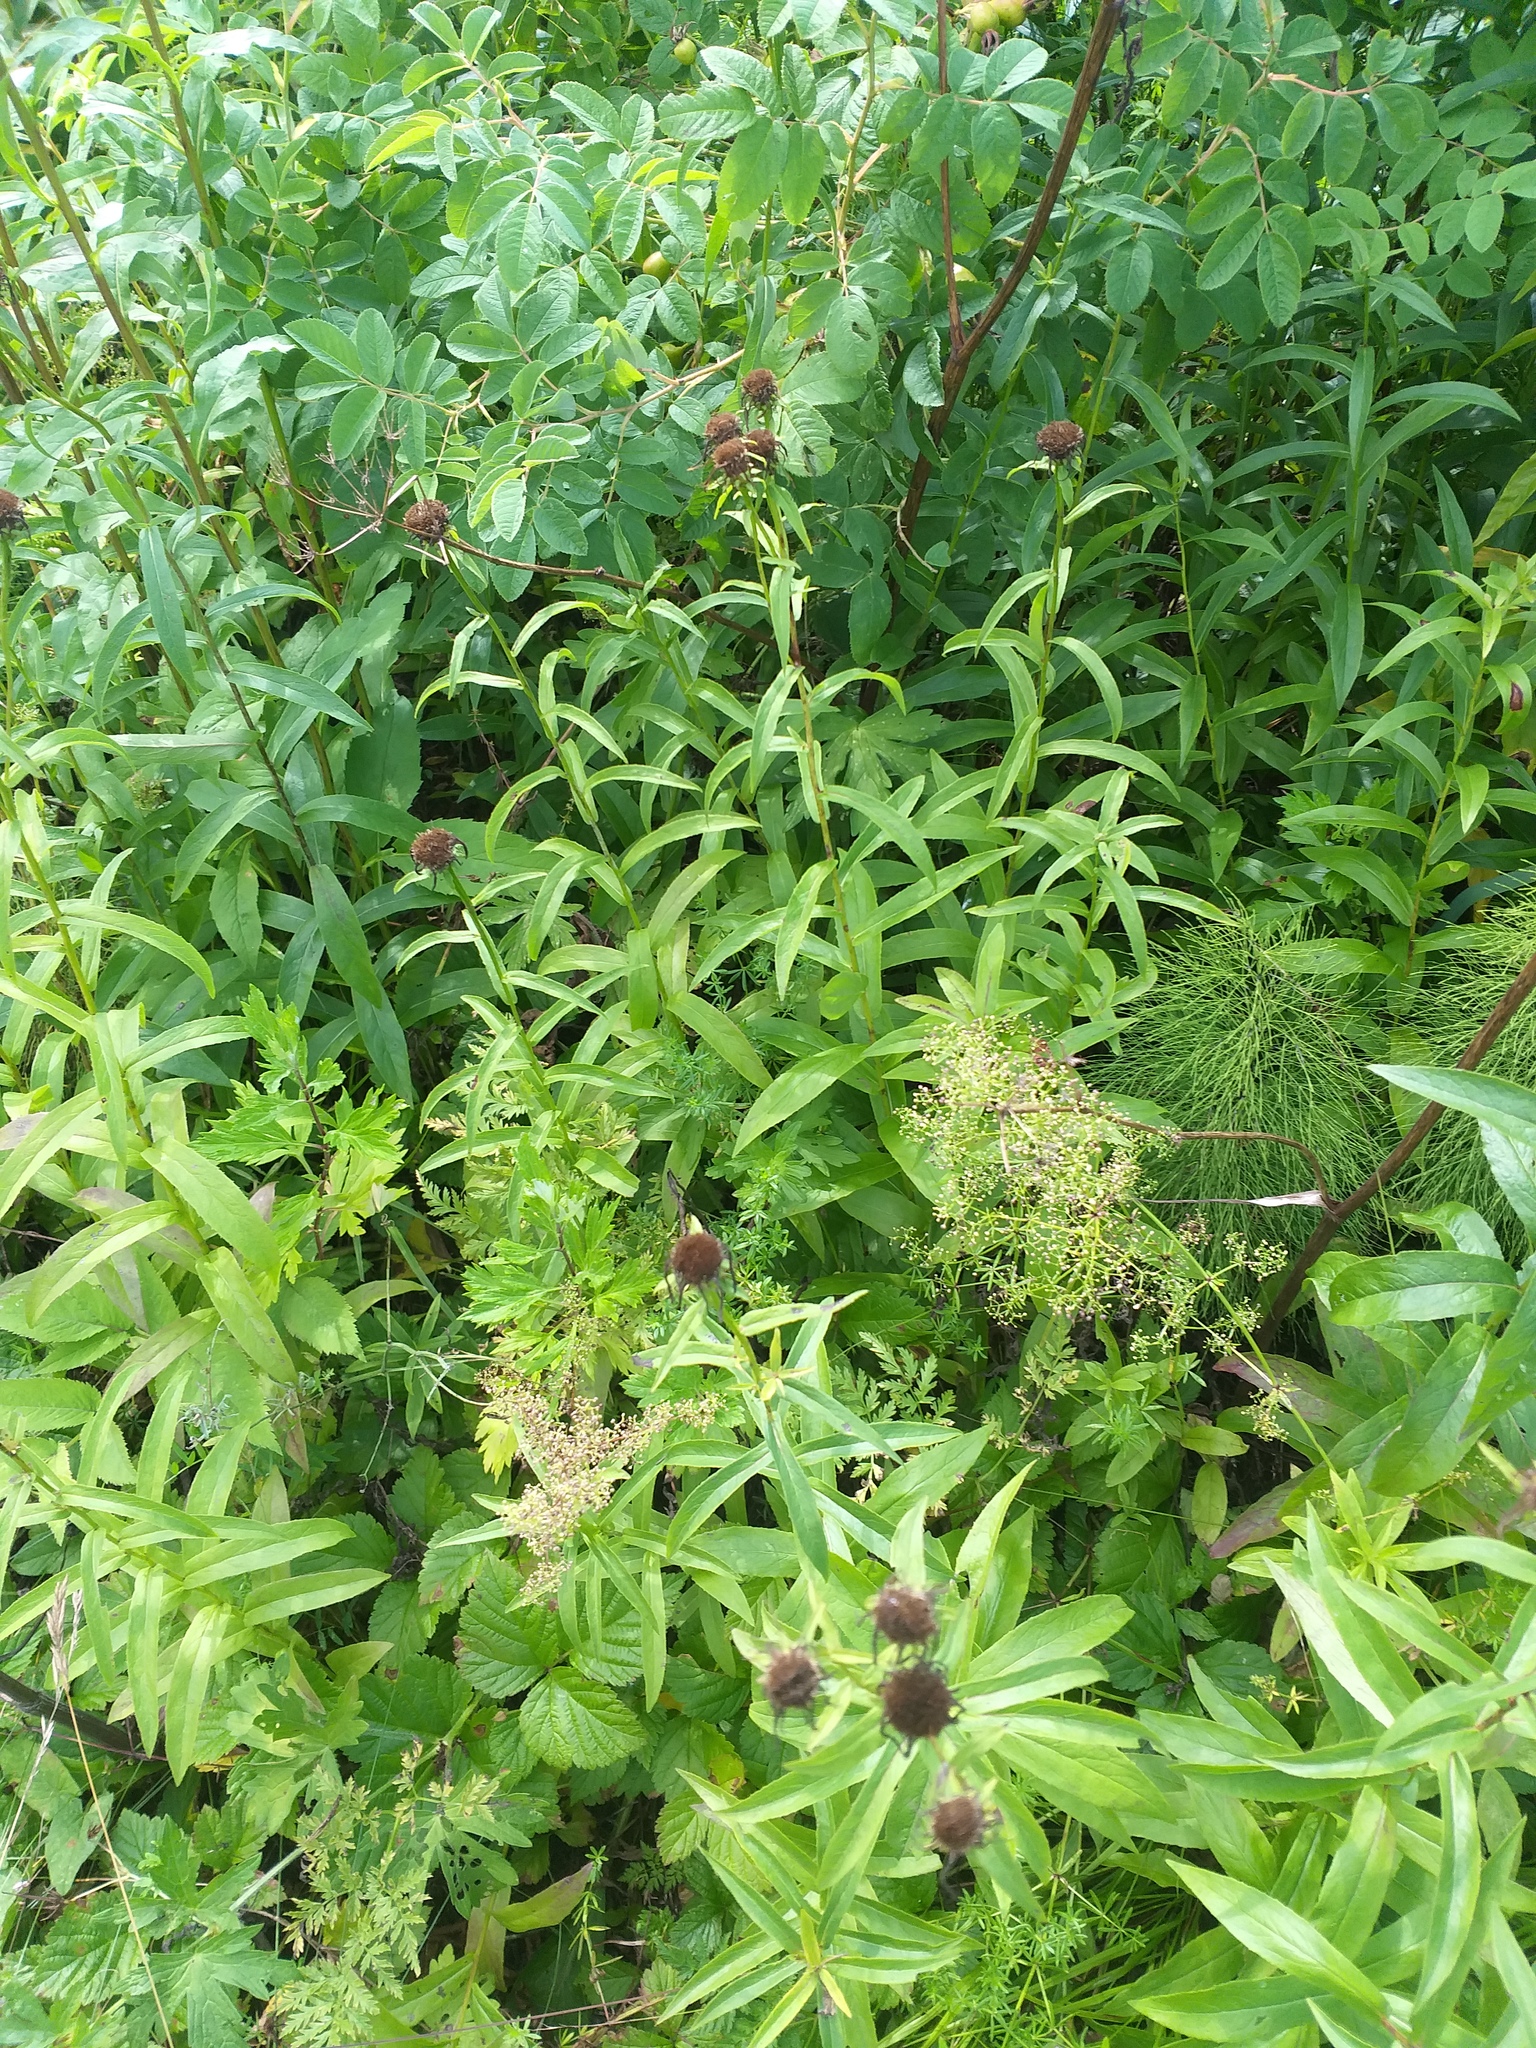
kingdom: Plantae
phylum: Tracheophyta
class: Magnoliopsida
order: Asterales
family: Asteraceae
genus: Pentanema
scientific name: Pentanema salicinum
